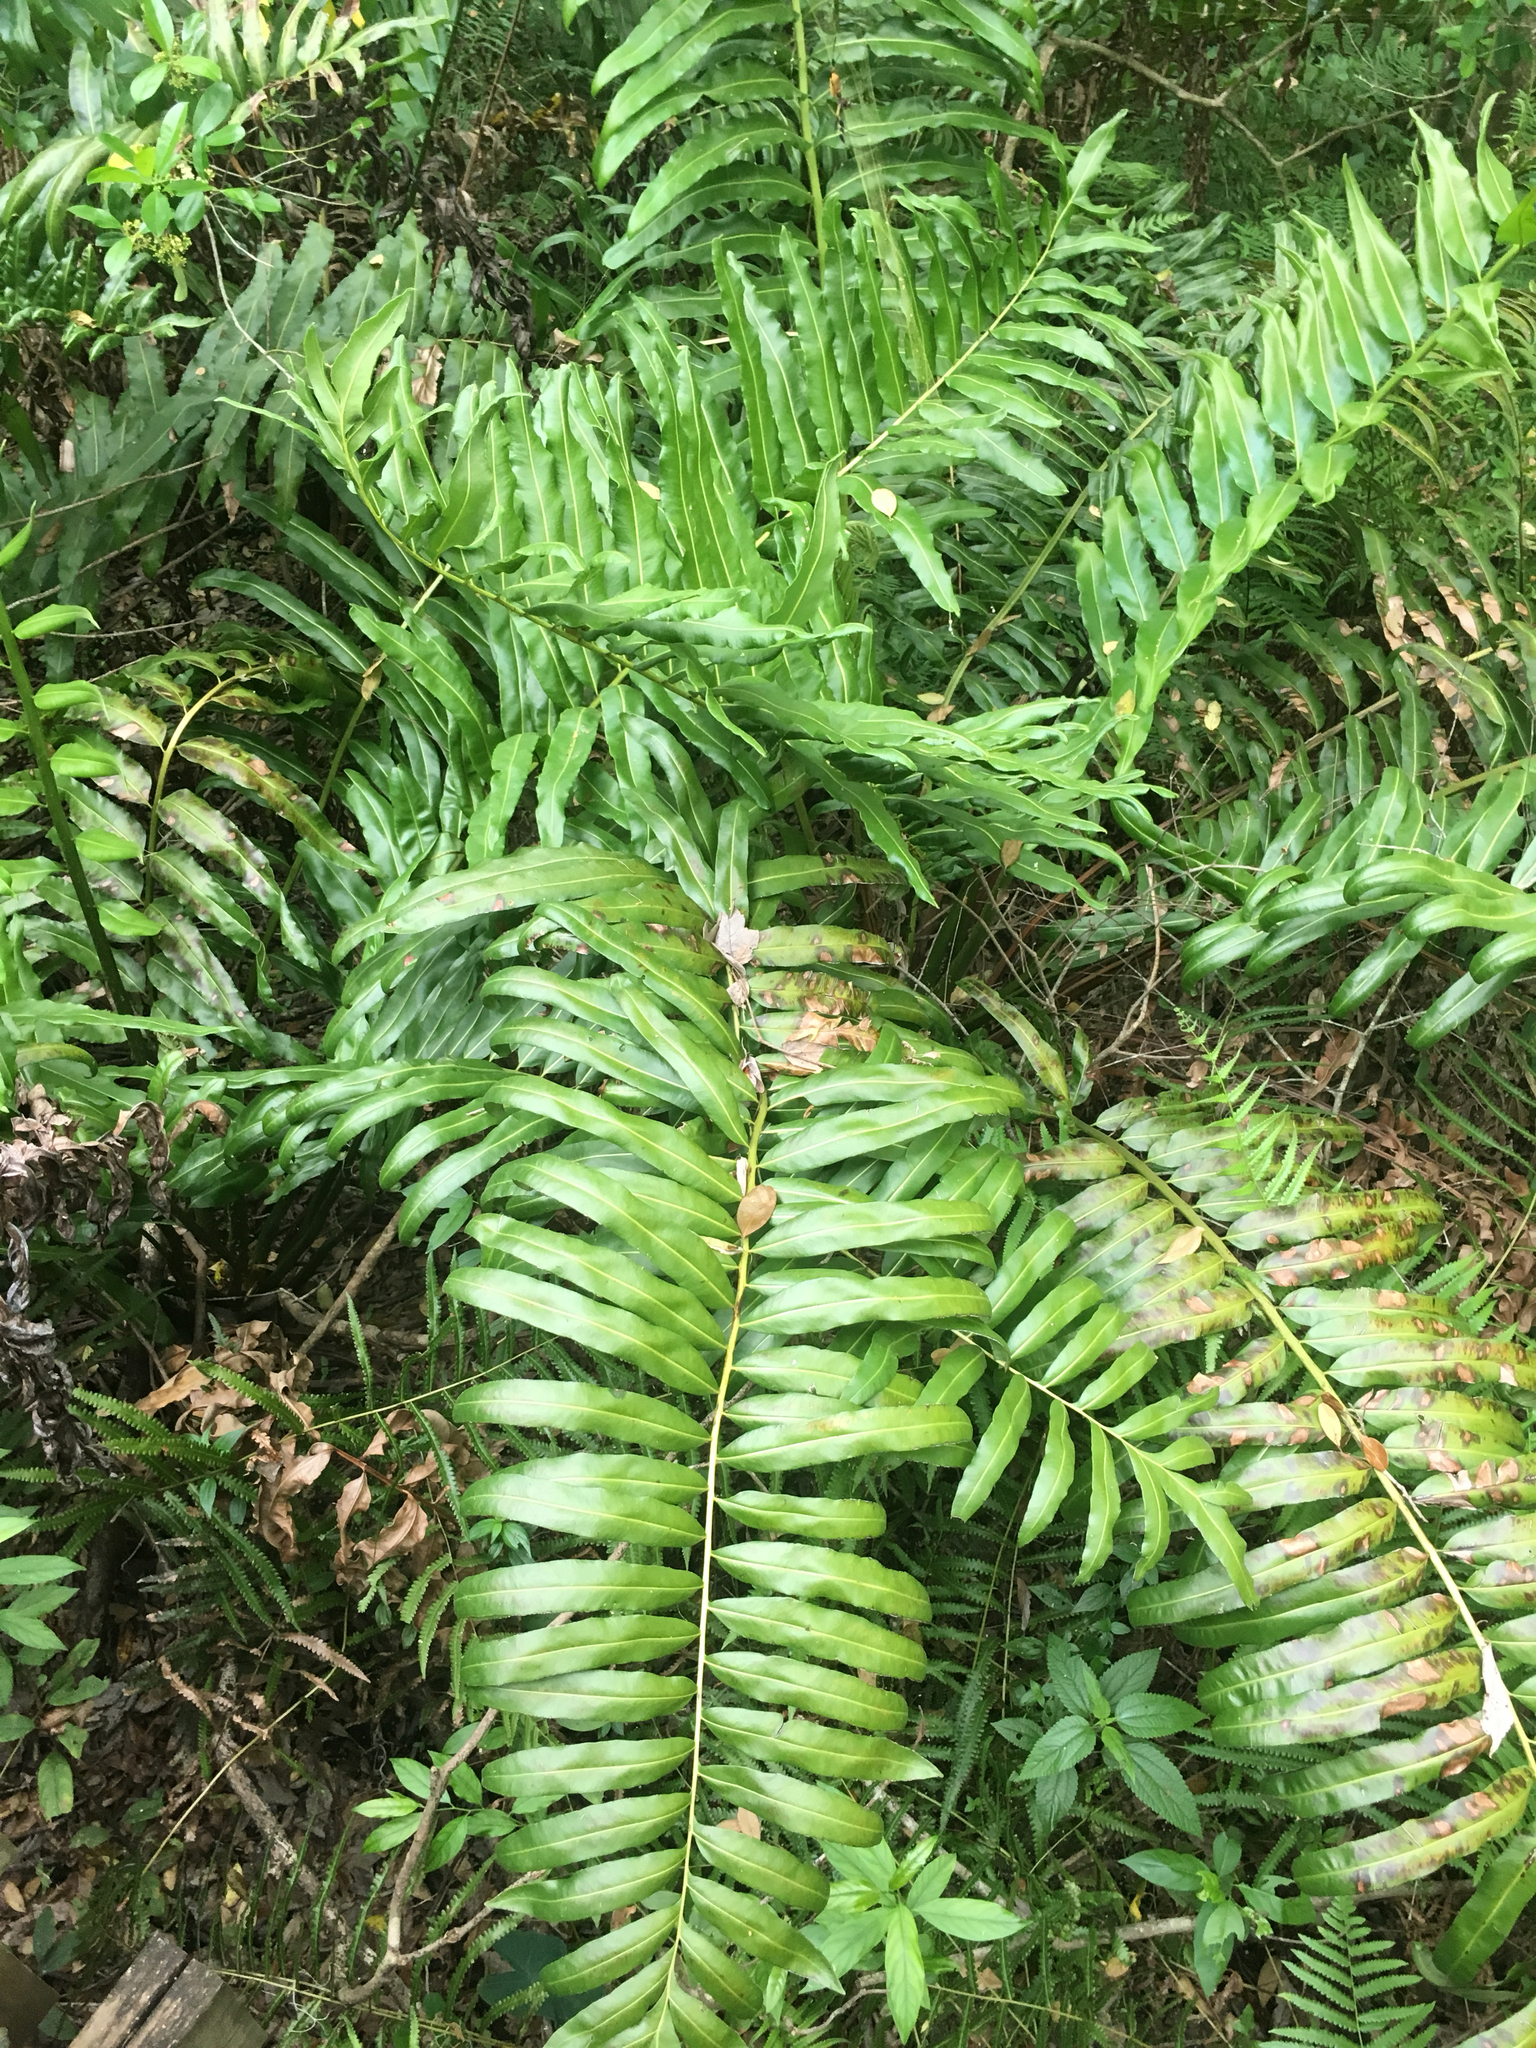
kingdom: Plantae
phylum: Tracheophyta
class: Polypodiopsida
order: Polypodiales
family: Blechnaceae
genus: Telmatoblechnum
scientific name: Telmatoblechnum serrulatum
